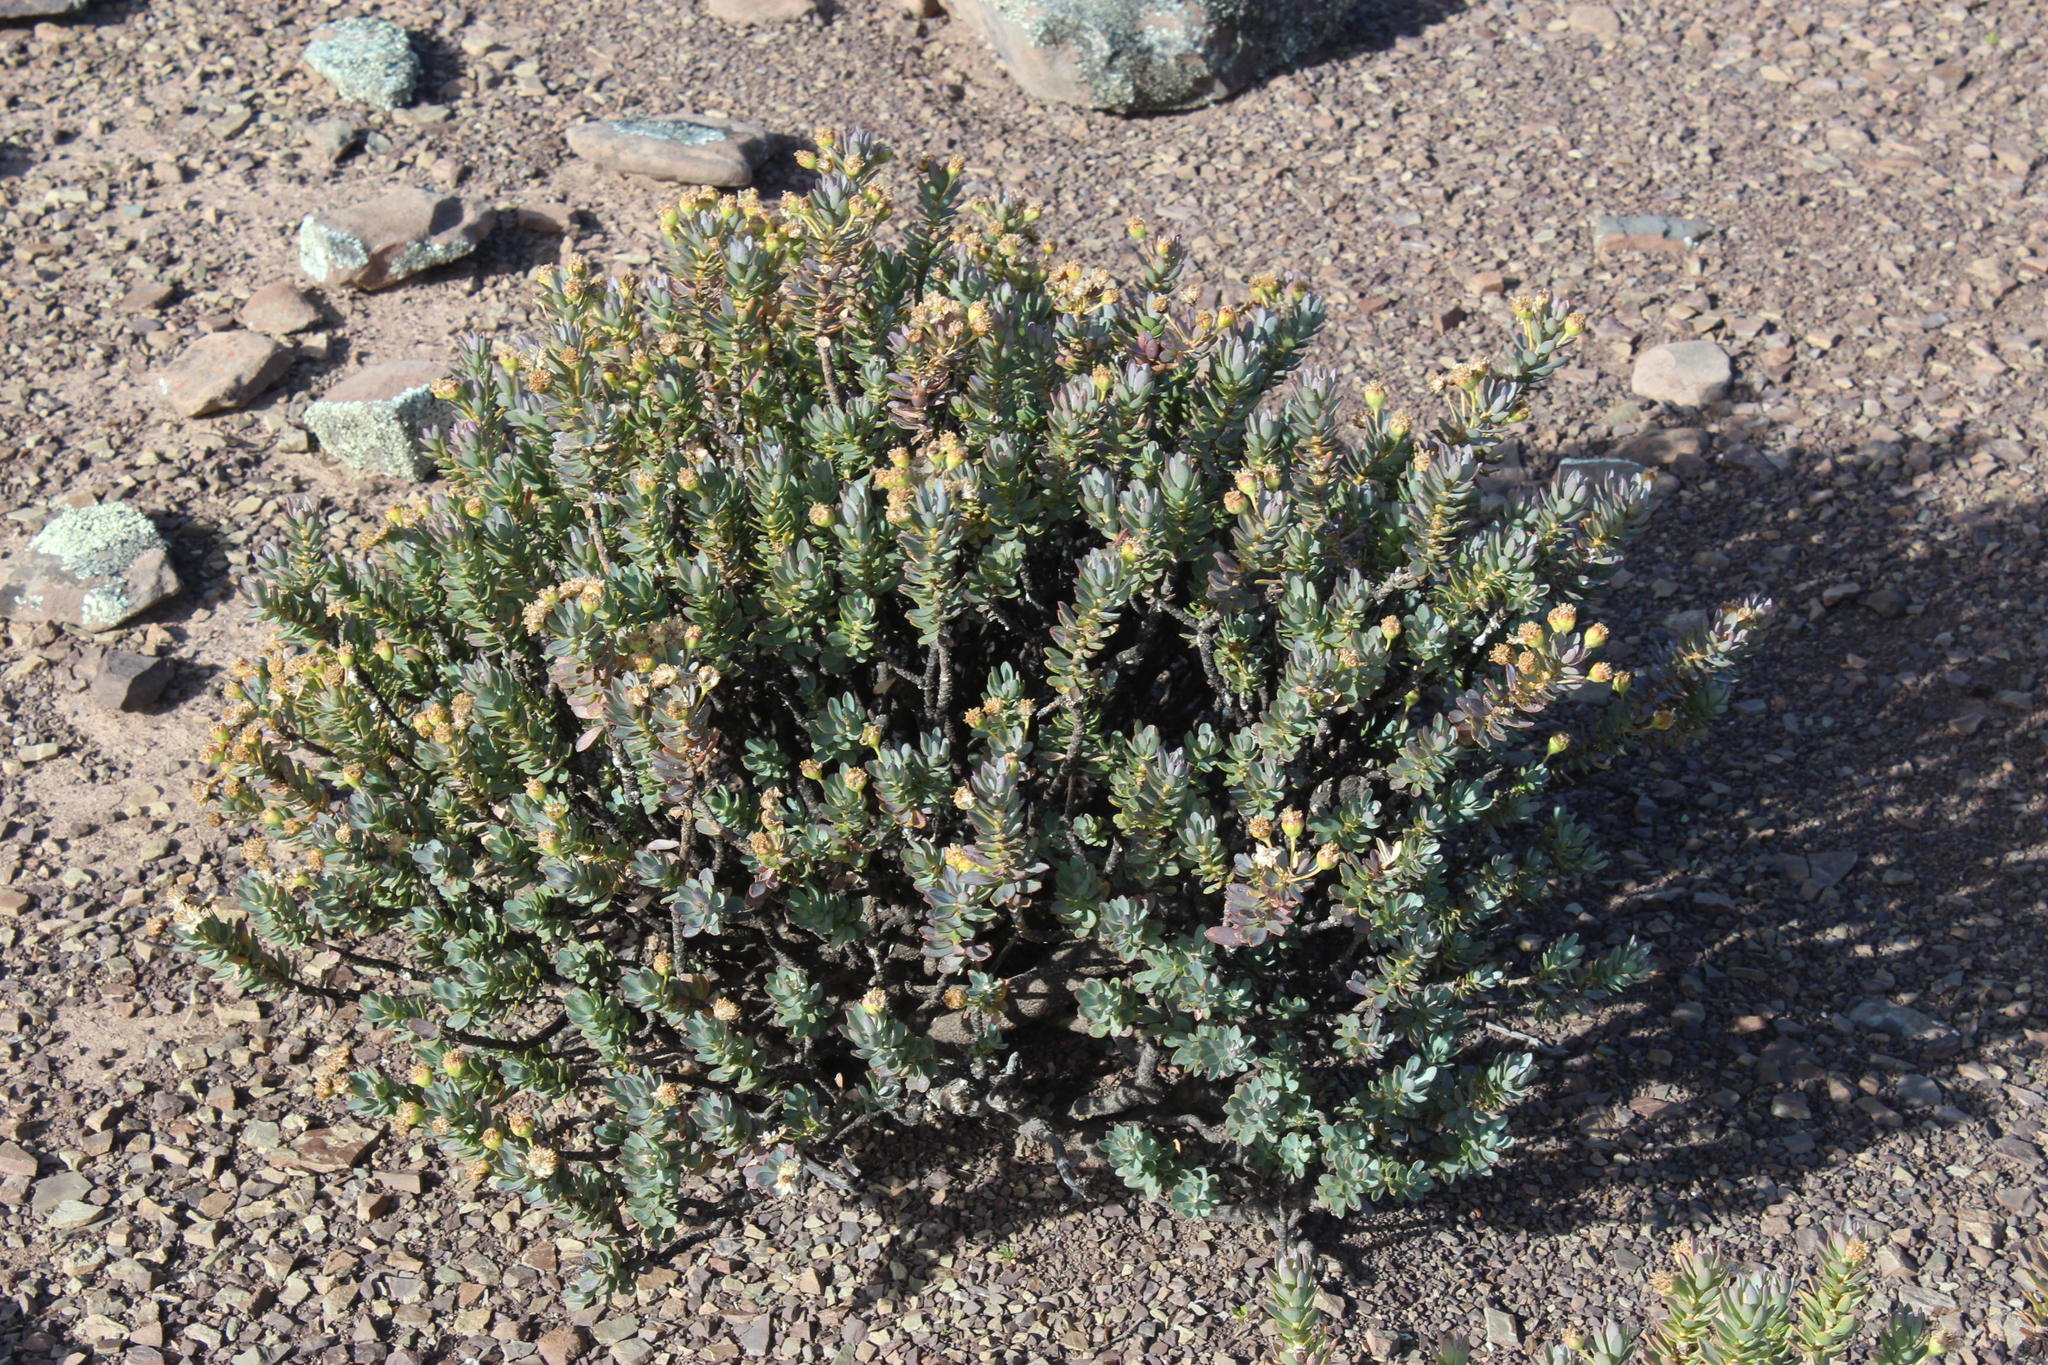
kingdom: Plantae
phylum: Tracheophyta
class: Magnoliopsida
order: Asterales
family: Asteraceae
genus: Euryops
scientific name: Euryops lateriflorus
